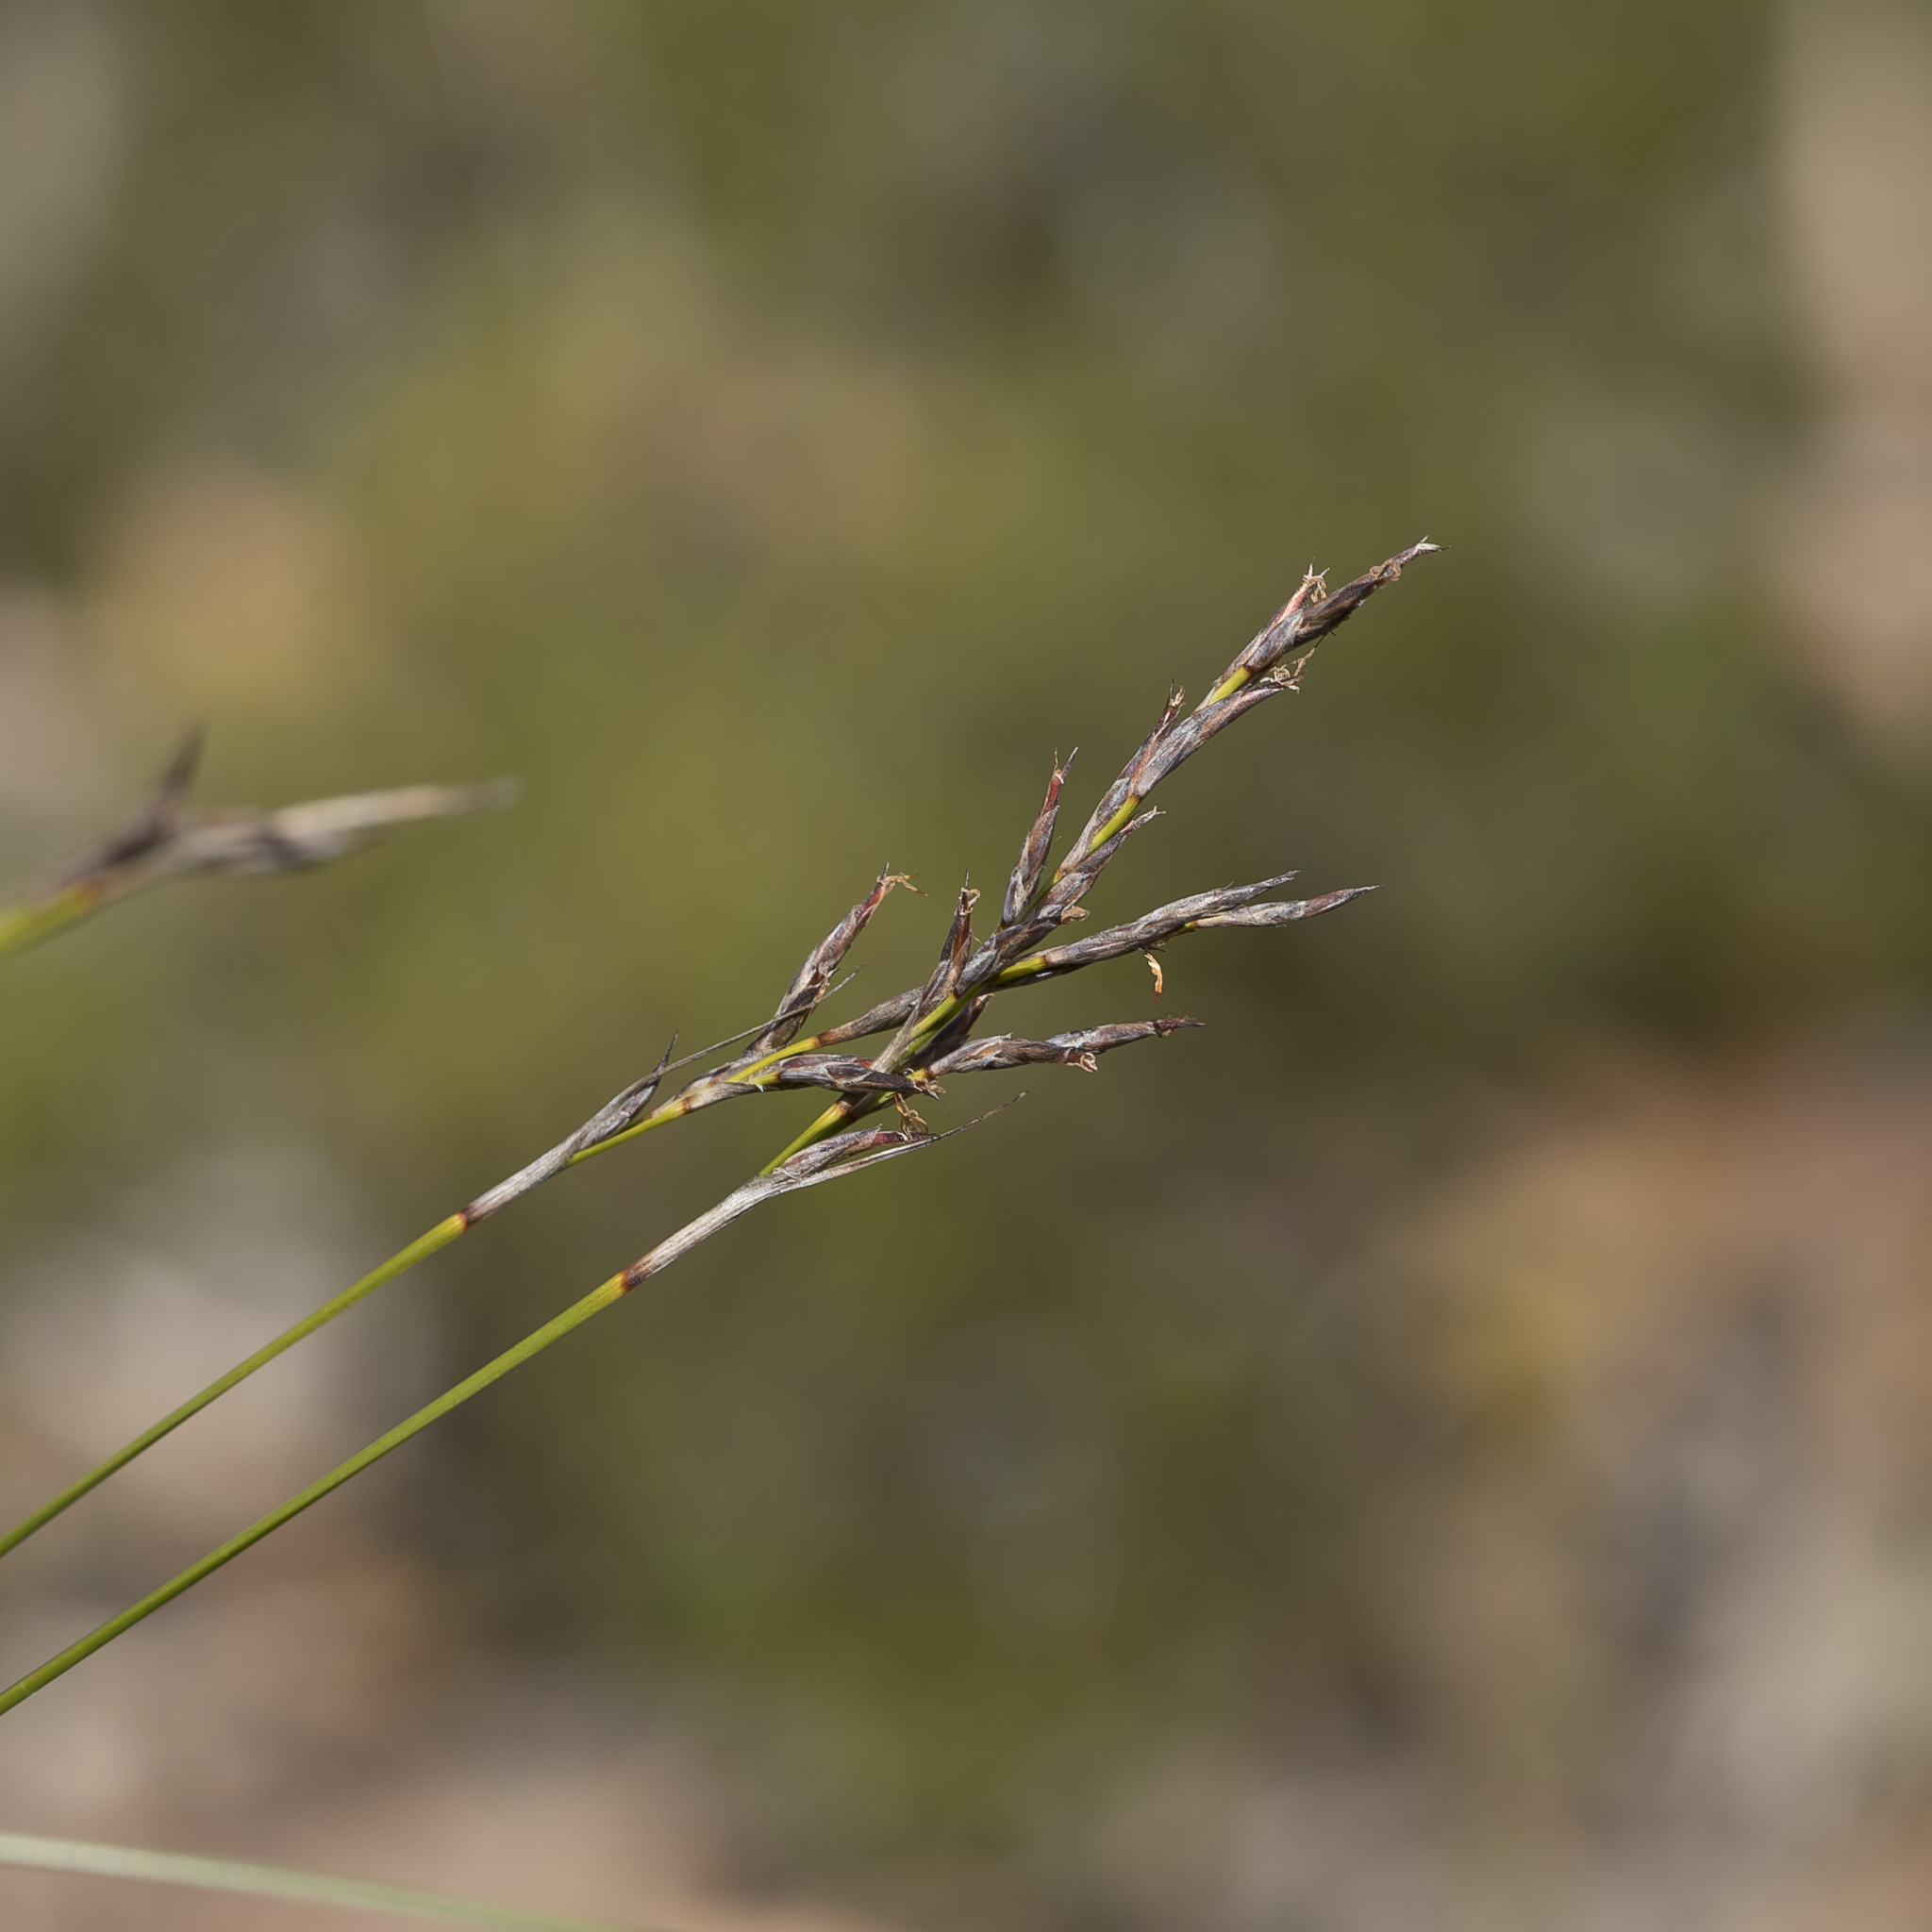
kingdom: Plantae
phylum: Tracheophyta
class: Liliopsida
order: Poales
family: Cyperaceae
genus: Lepidosperma
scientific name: Lepidosperma semiteres
